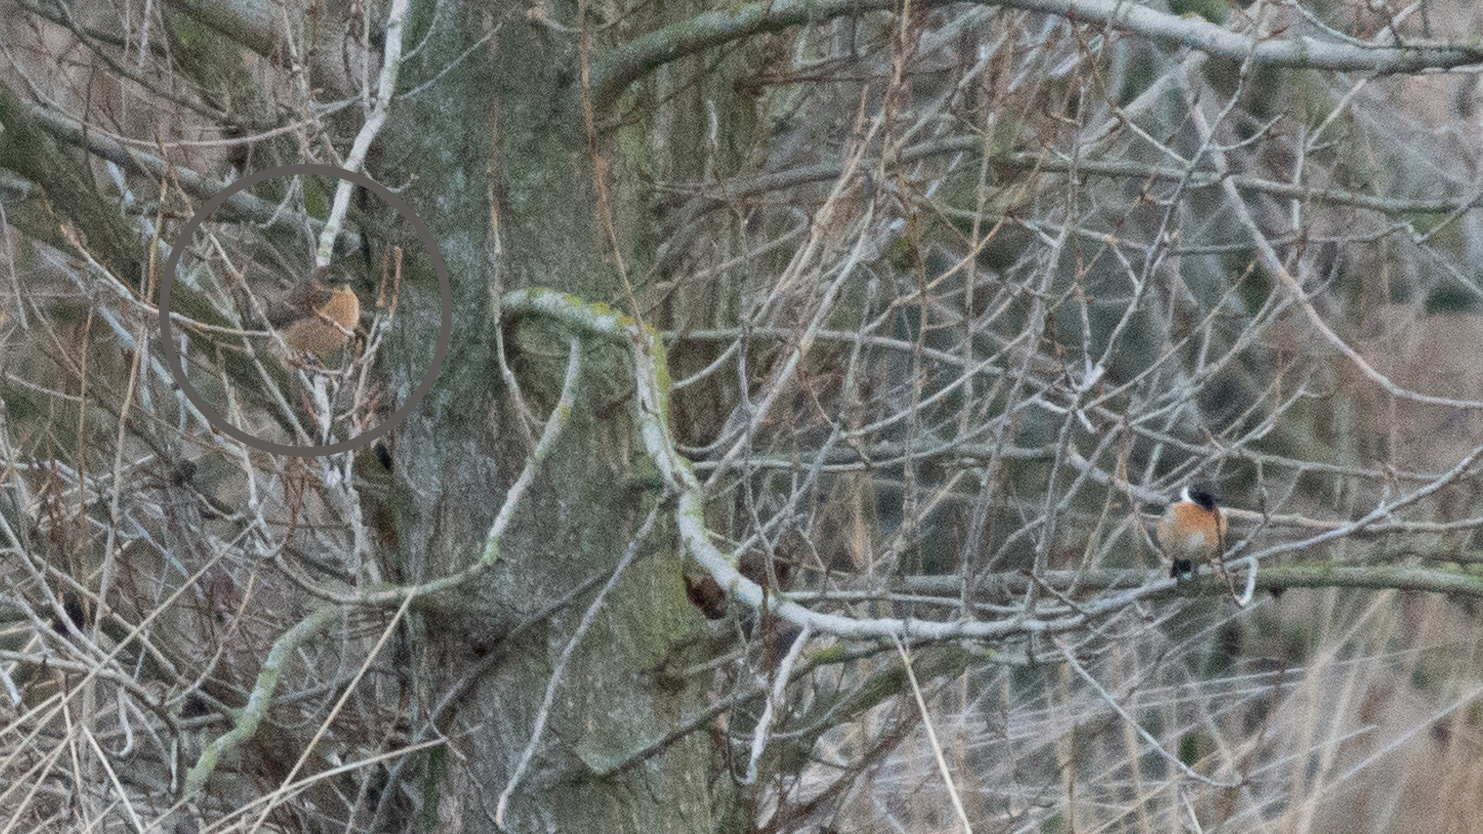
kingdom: Animalia
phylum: Chordata
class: Aves
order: Passeriformes
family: Muscicapidae
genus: Saxicola
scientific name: Saxicola rubicola
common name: European stonechat
